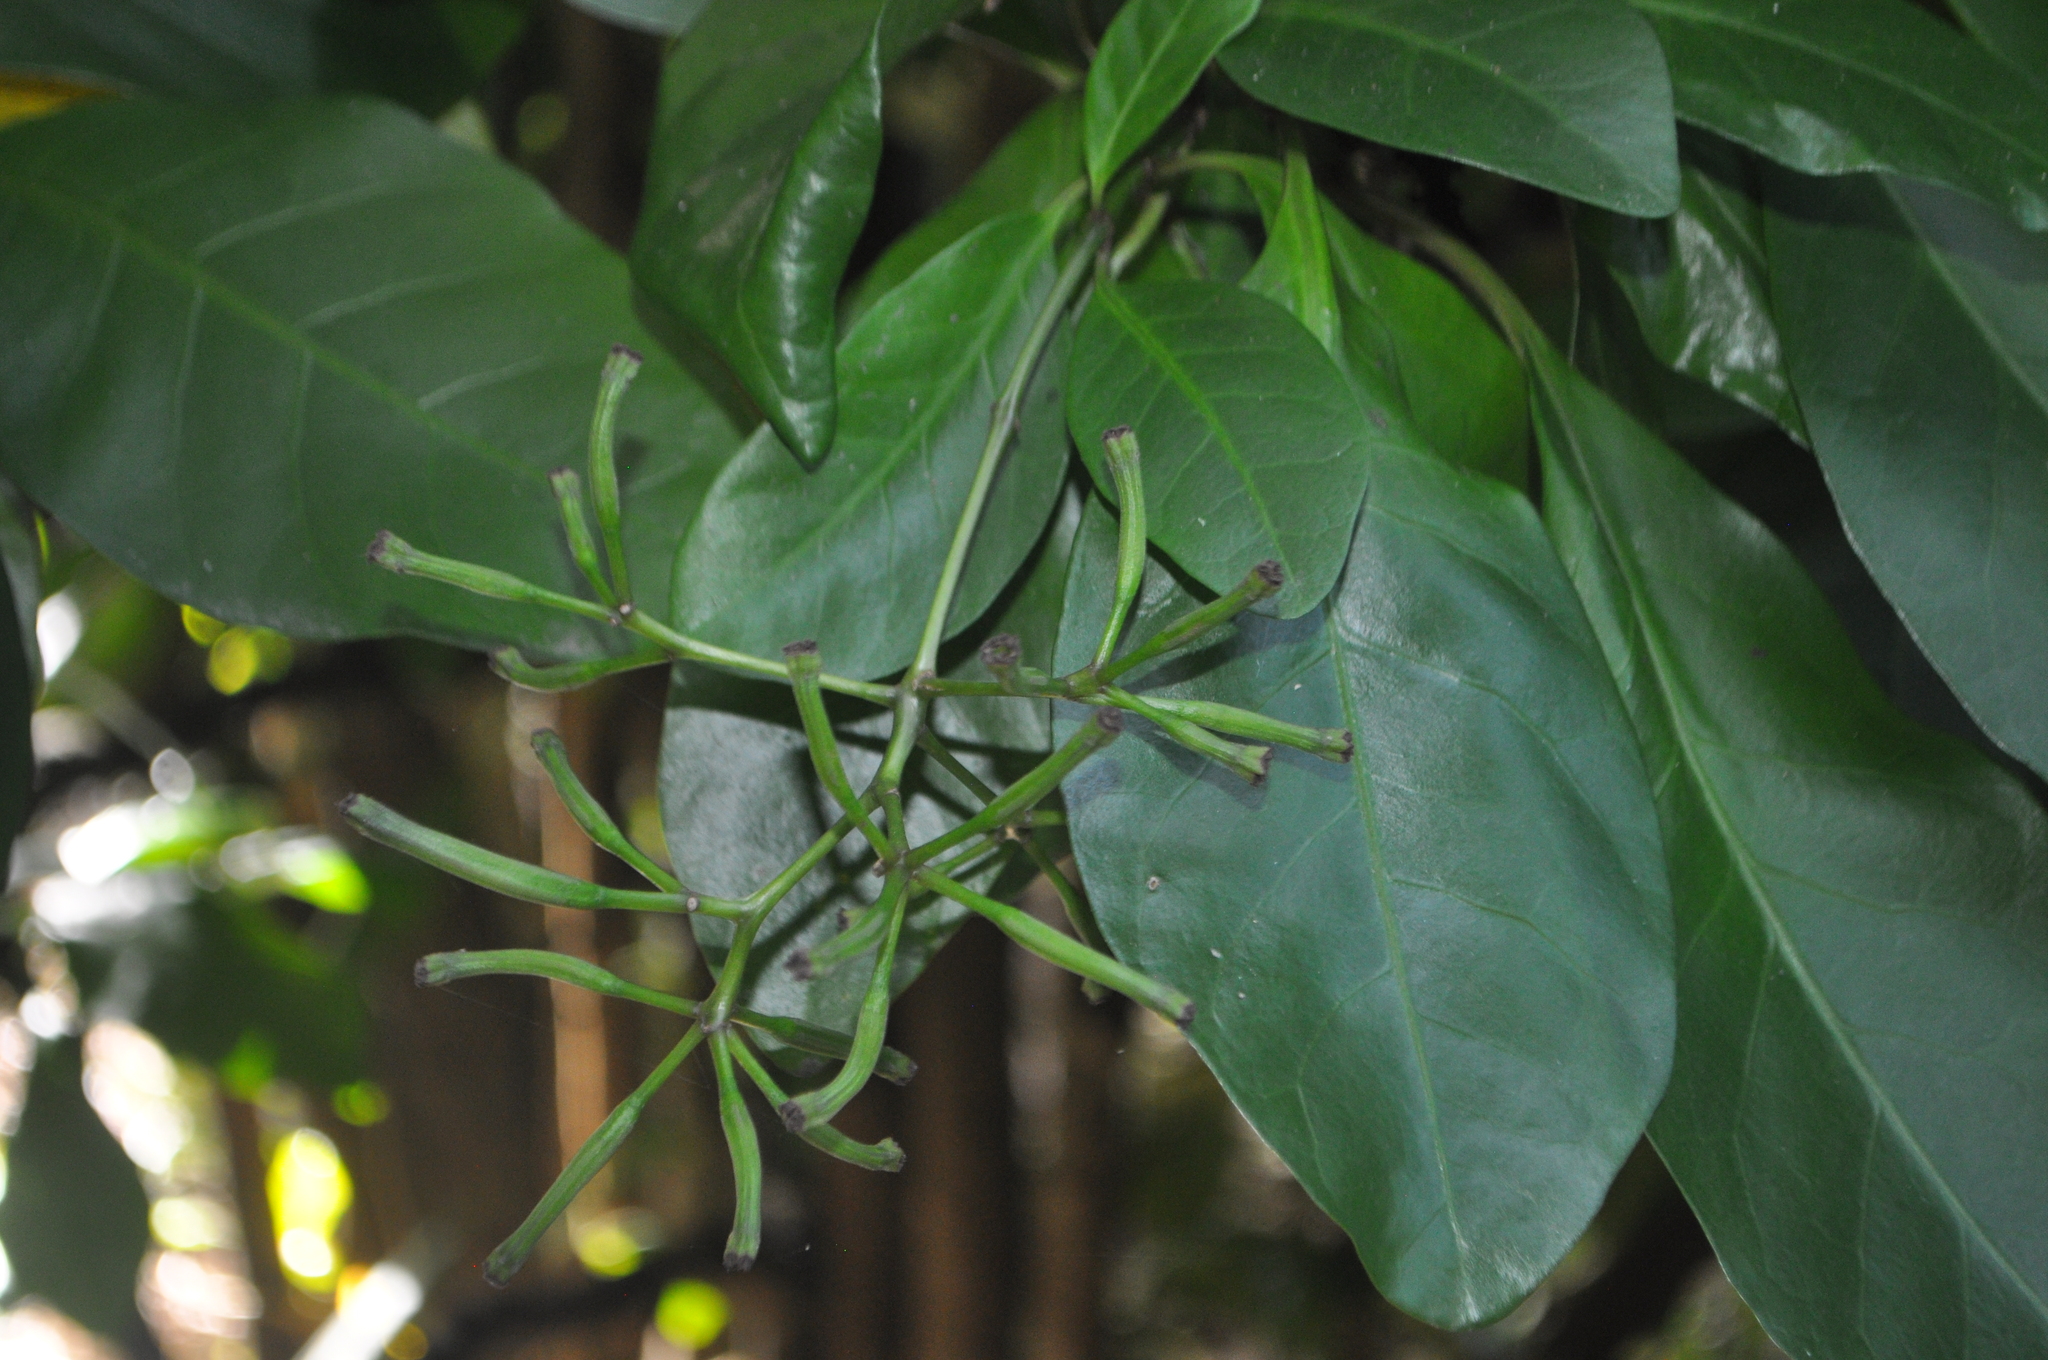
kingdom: Plantae
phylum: Tracheophyta
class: Magnoliopsida
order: Caryophyllales
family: Nyctaginaceae
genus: Ceodes
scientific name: Ceodes brunoniana
